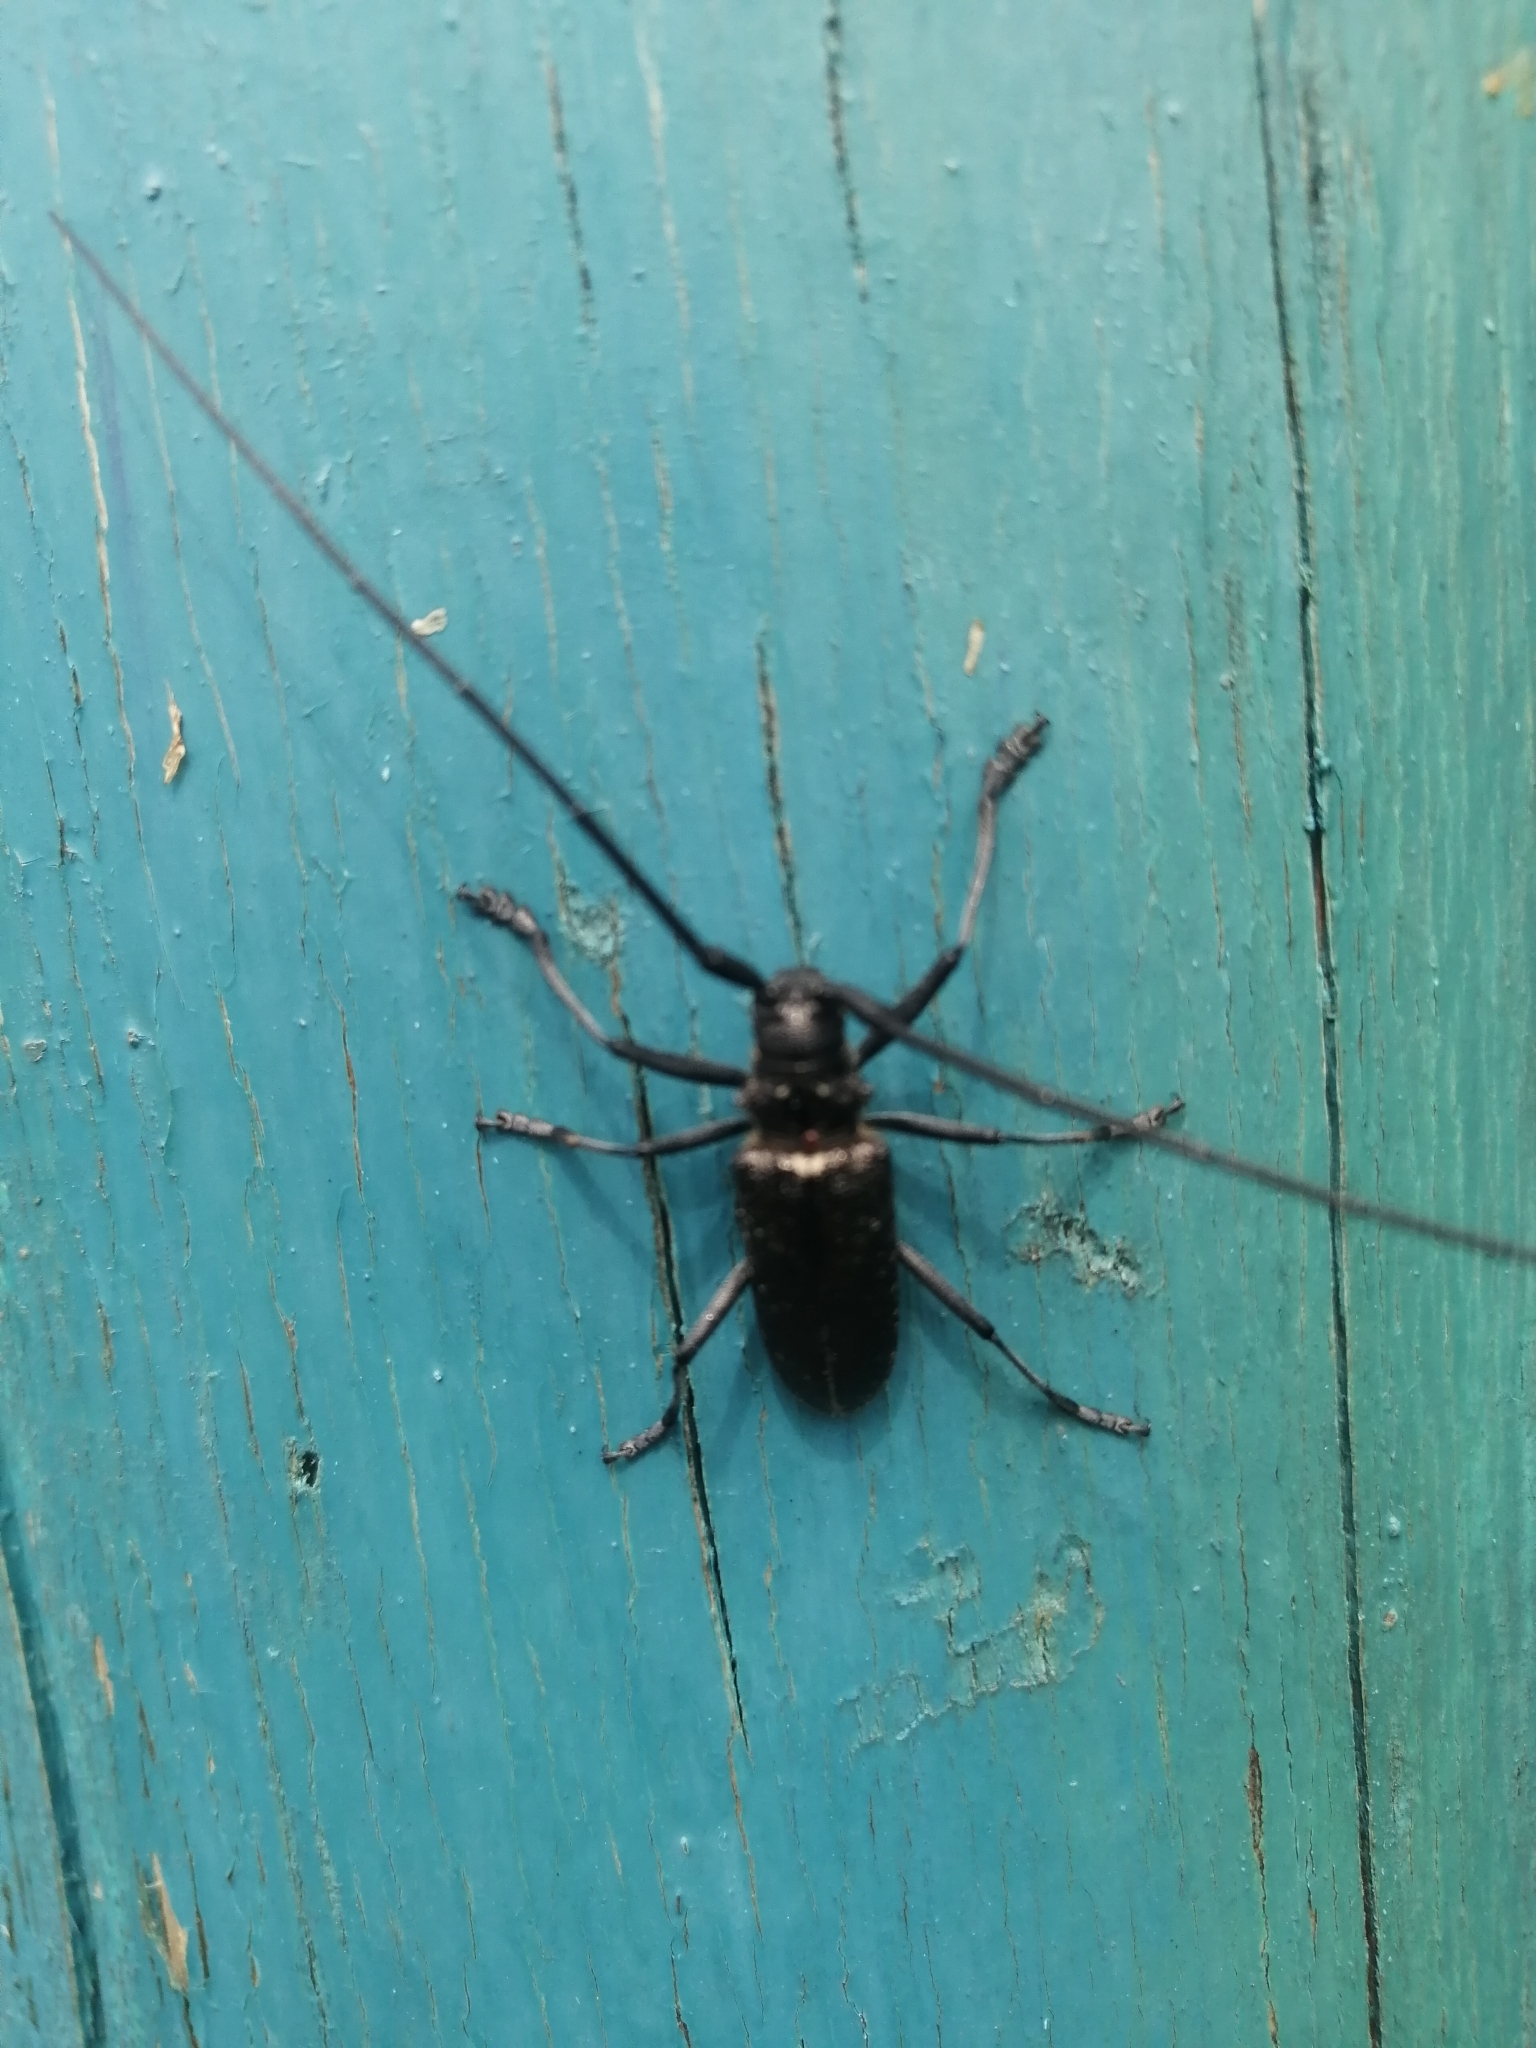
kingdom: Animalia
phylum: Arthropoda
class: Insecta
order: Coleoptera
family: Cerambycidae
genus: Monochamus
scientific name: Monochamus sutor
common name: Pine sawyer
